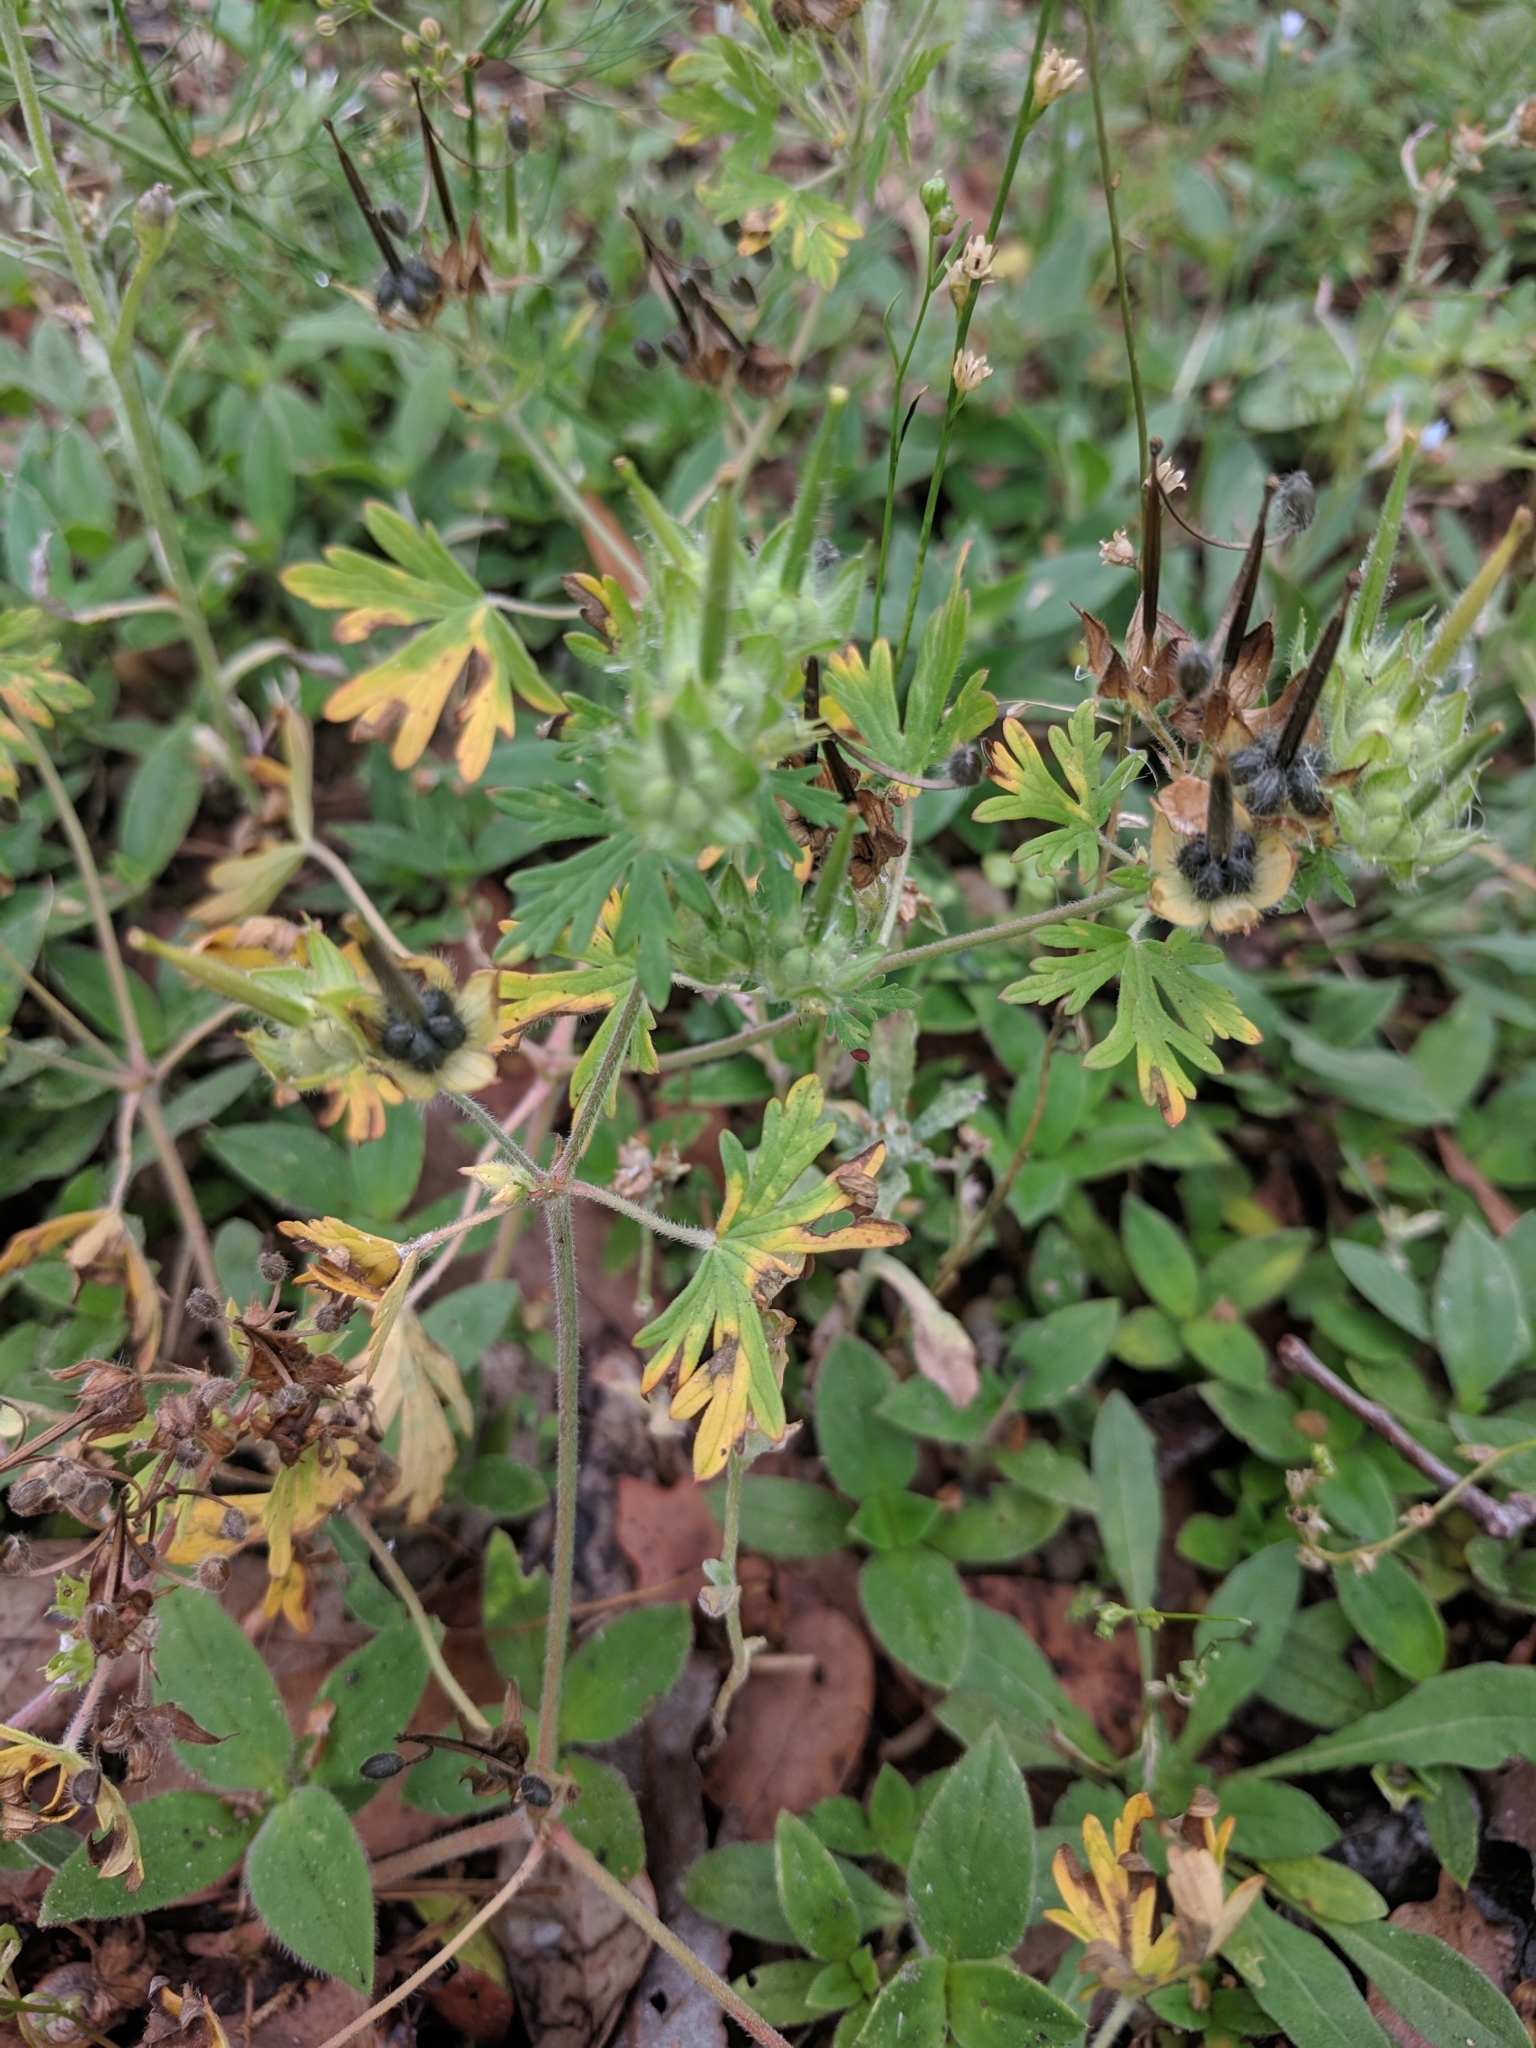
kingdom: Plantae
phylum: Tracheophyta
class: Magnoliopsida
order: Geraniales
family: Geraniaceae
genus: Geranium
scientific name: Geranium carolinianum
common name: Carolina crane's-bill
